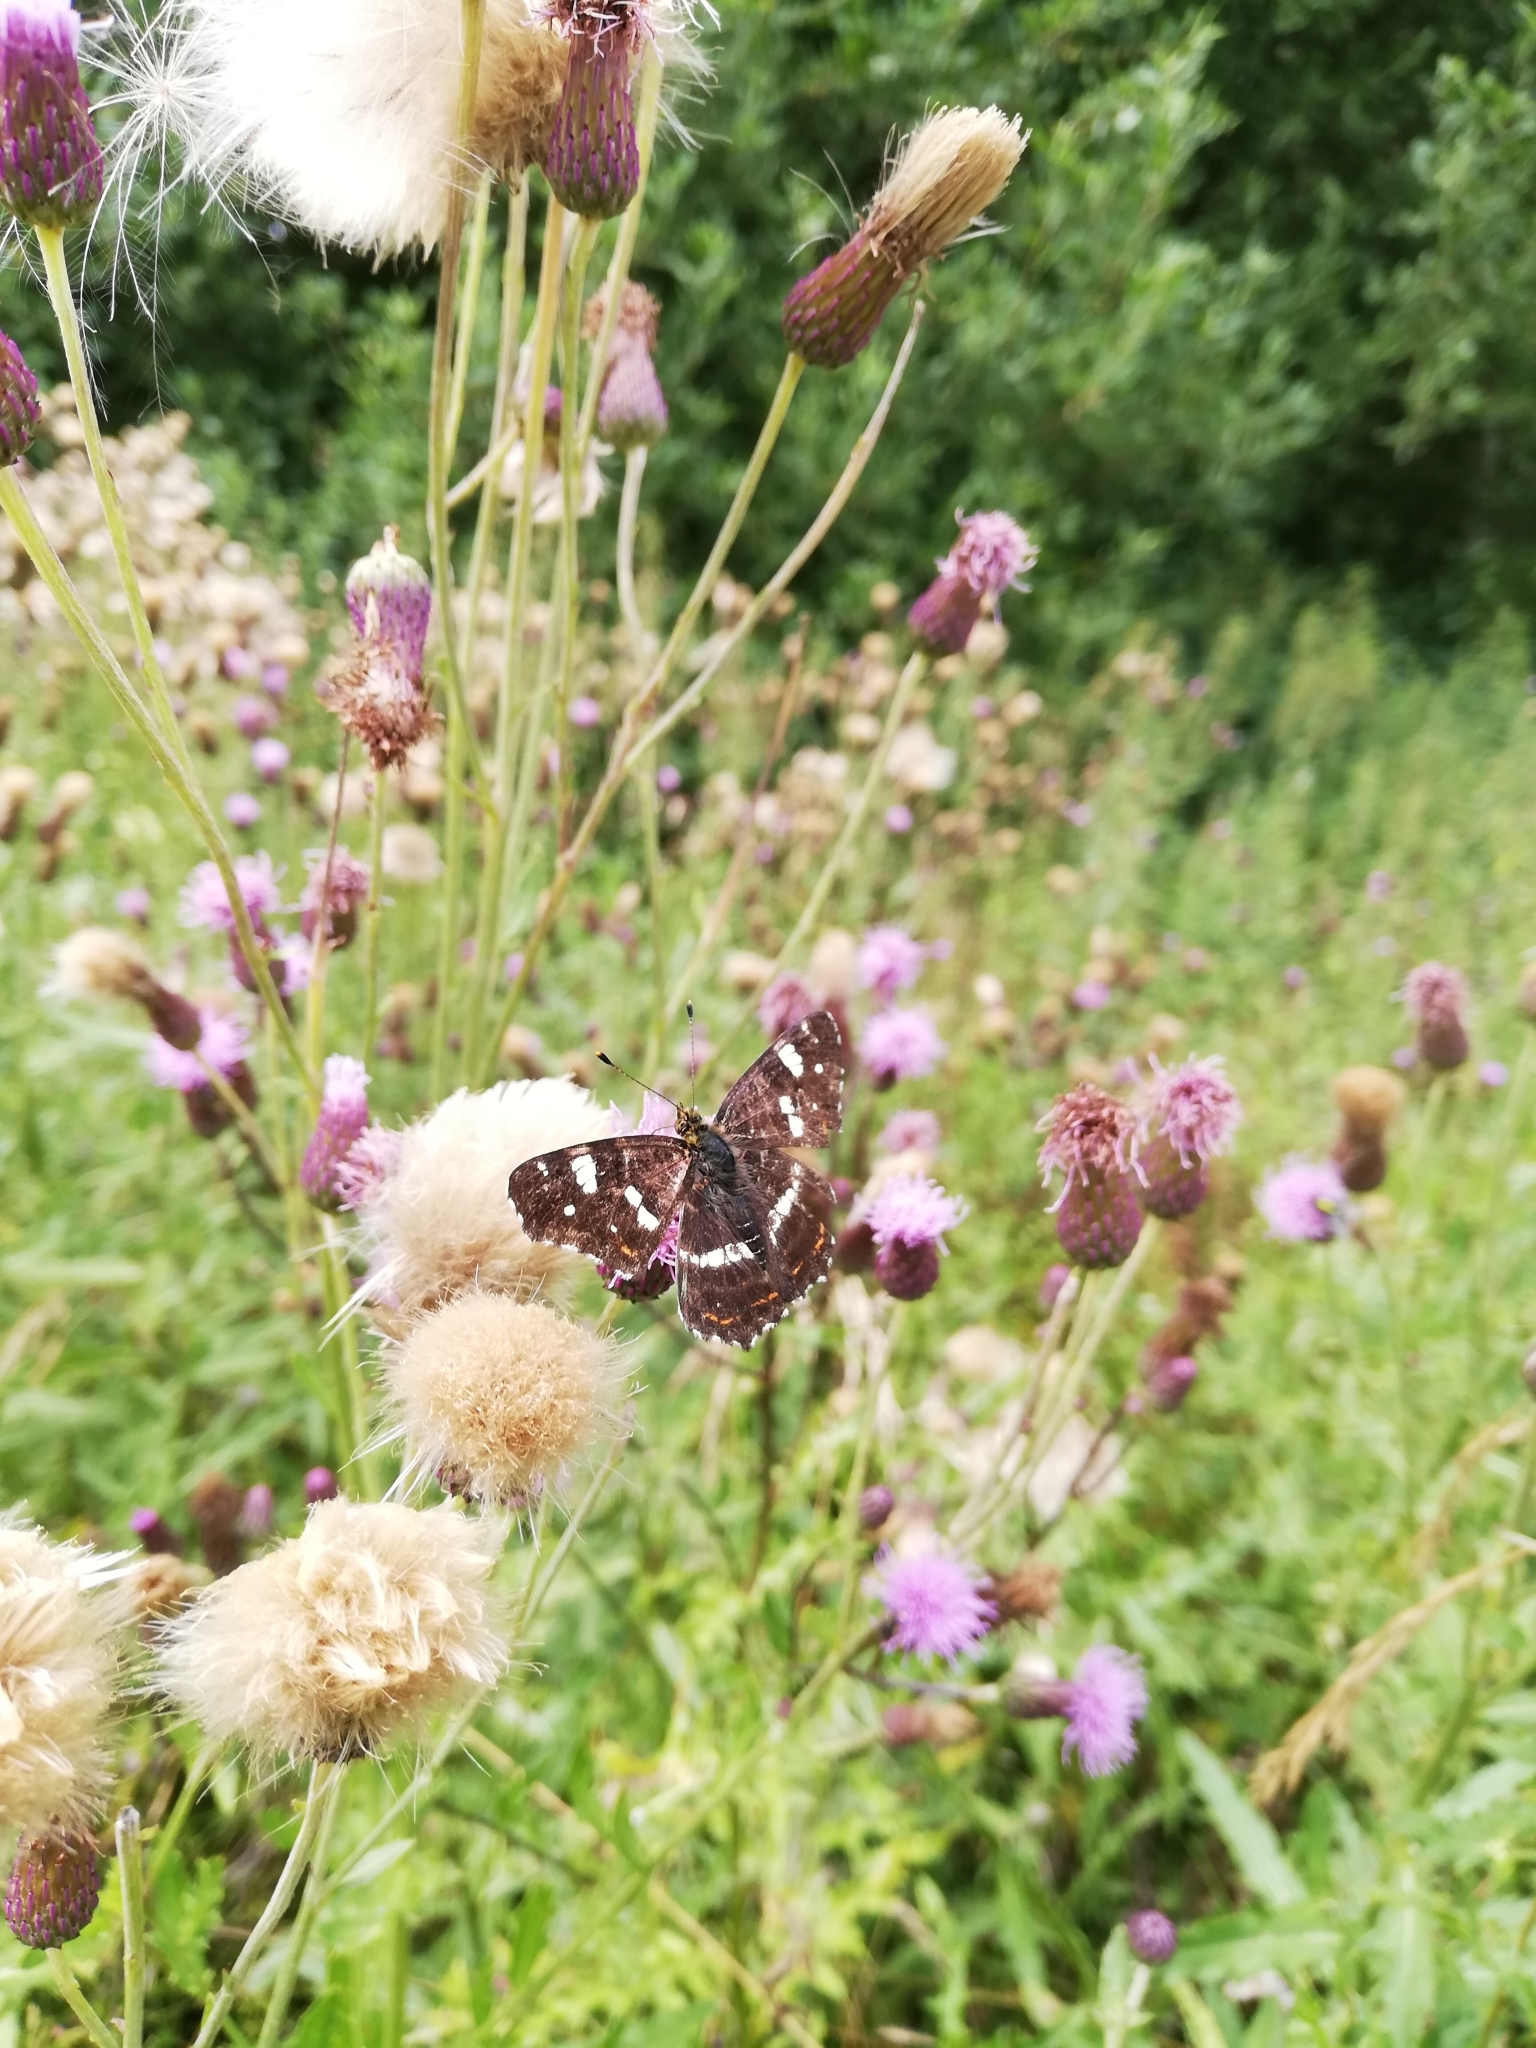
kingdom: Animalia
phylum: Arthropoda
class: Insecta
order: Lepidoptera
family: Nymphalidae
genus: Araschnia
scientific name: Araschnia levana
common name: Map butterfly
